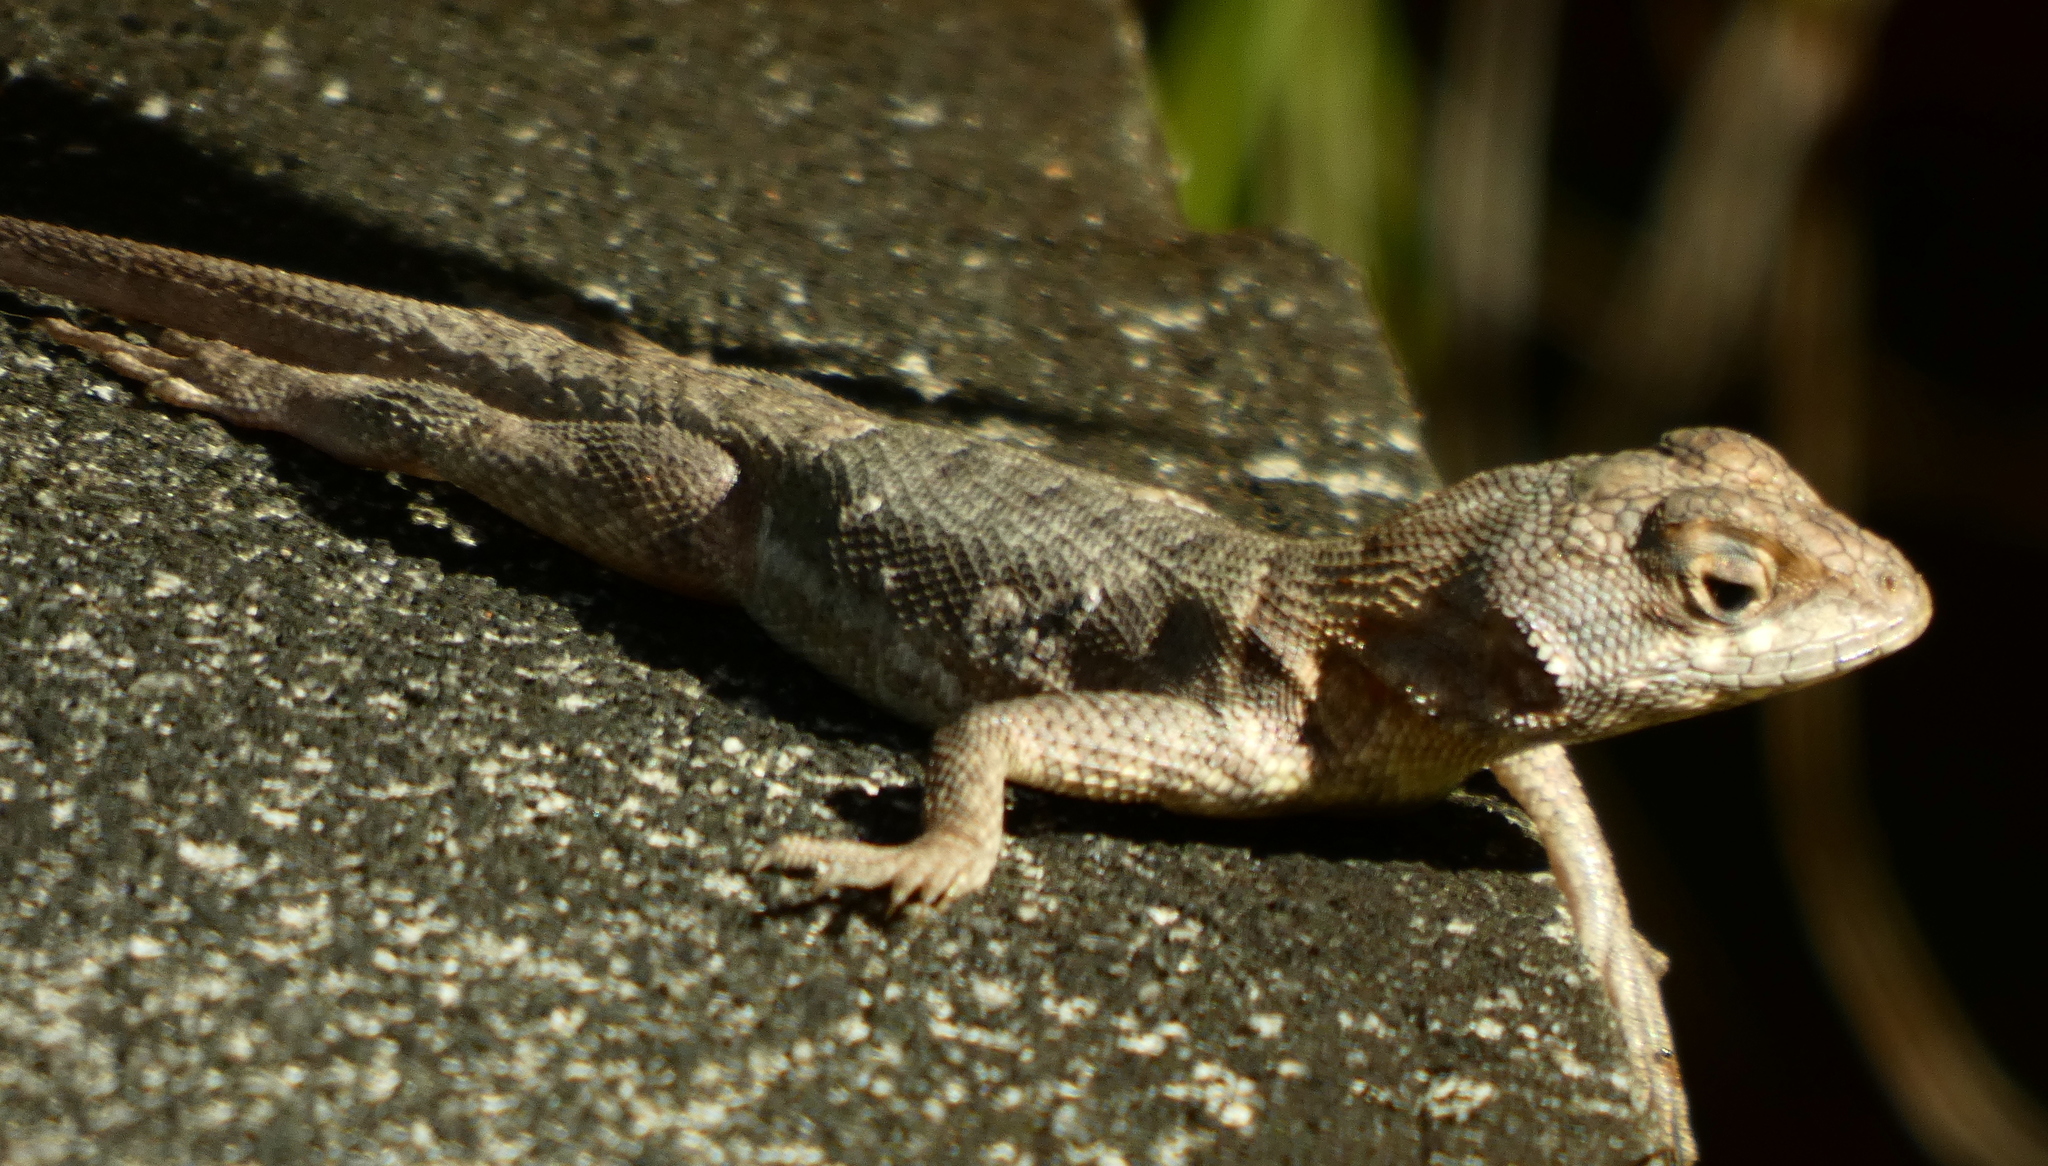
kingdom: Animalia
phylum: Chordata
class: Squamata
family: Tropiduridae
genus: Tropidurus
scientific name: Tropidurus hispidus
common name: Peters' lava lizard
